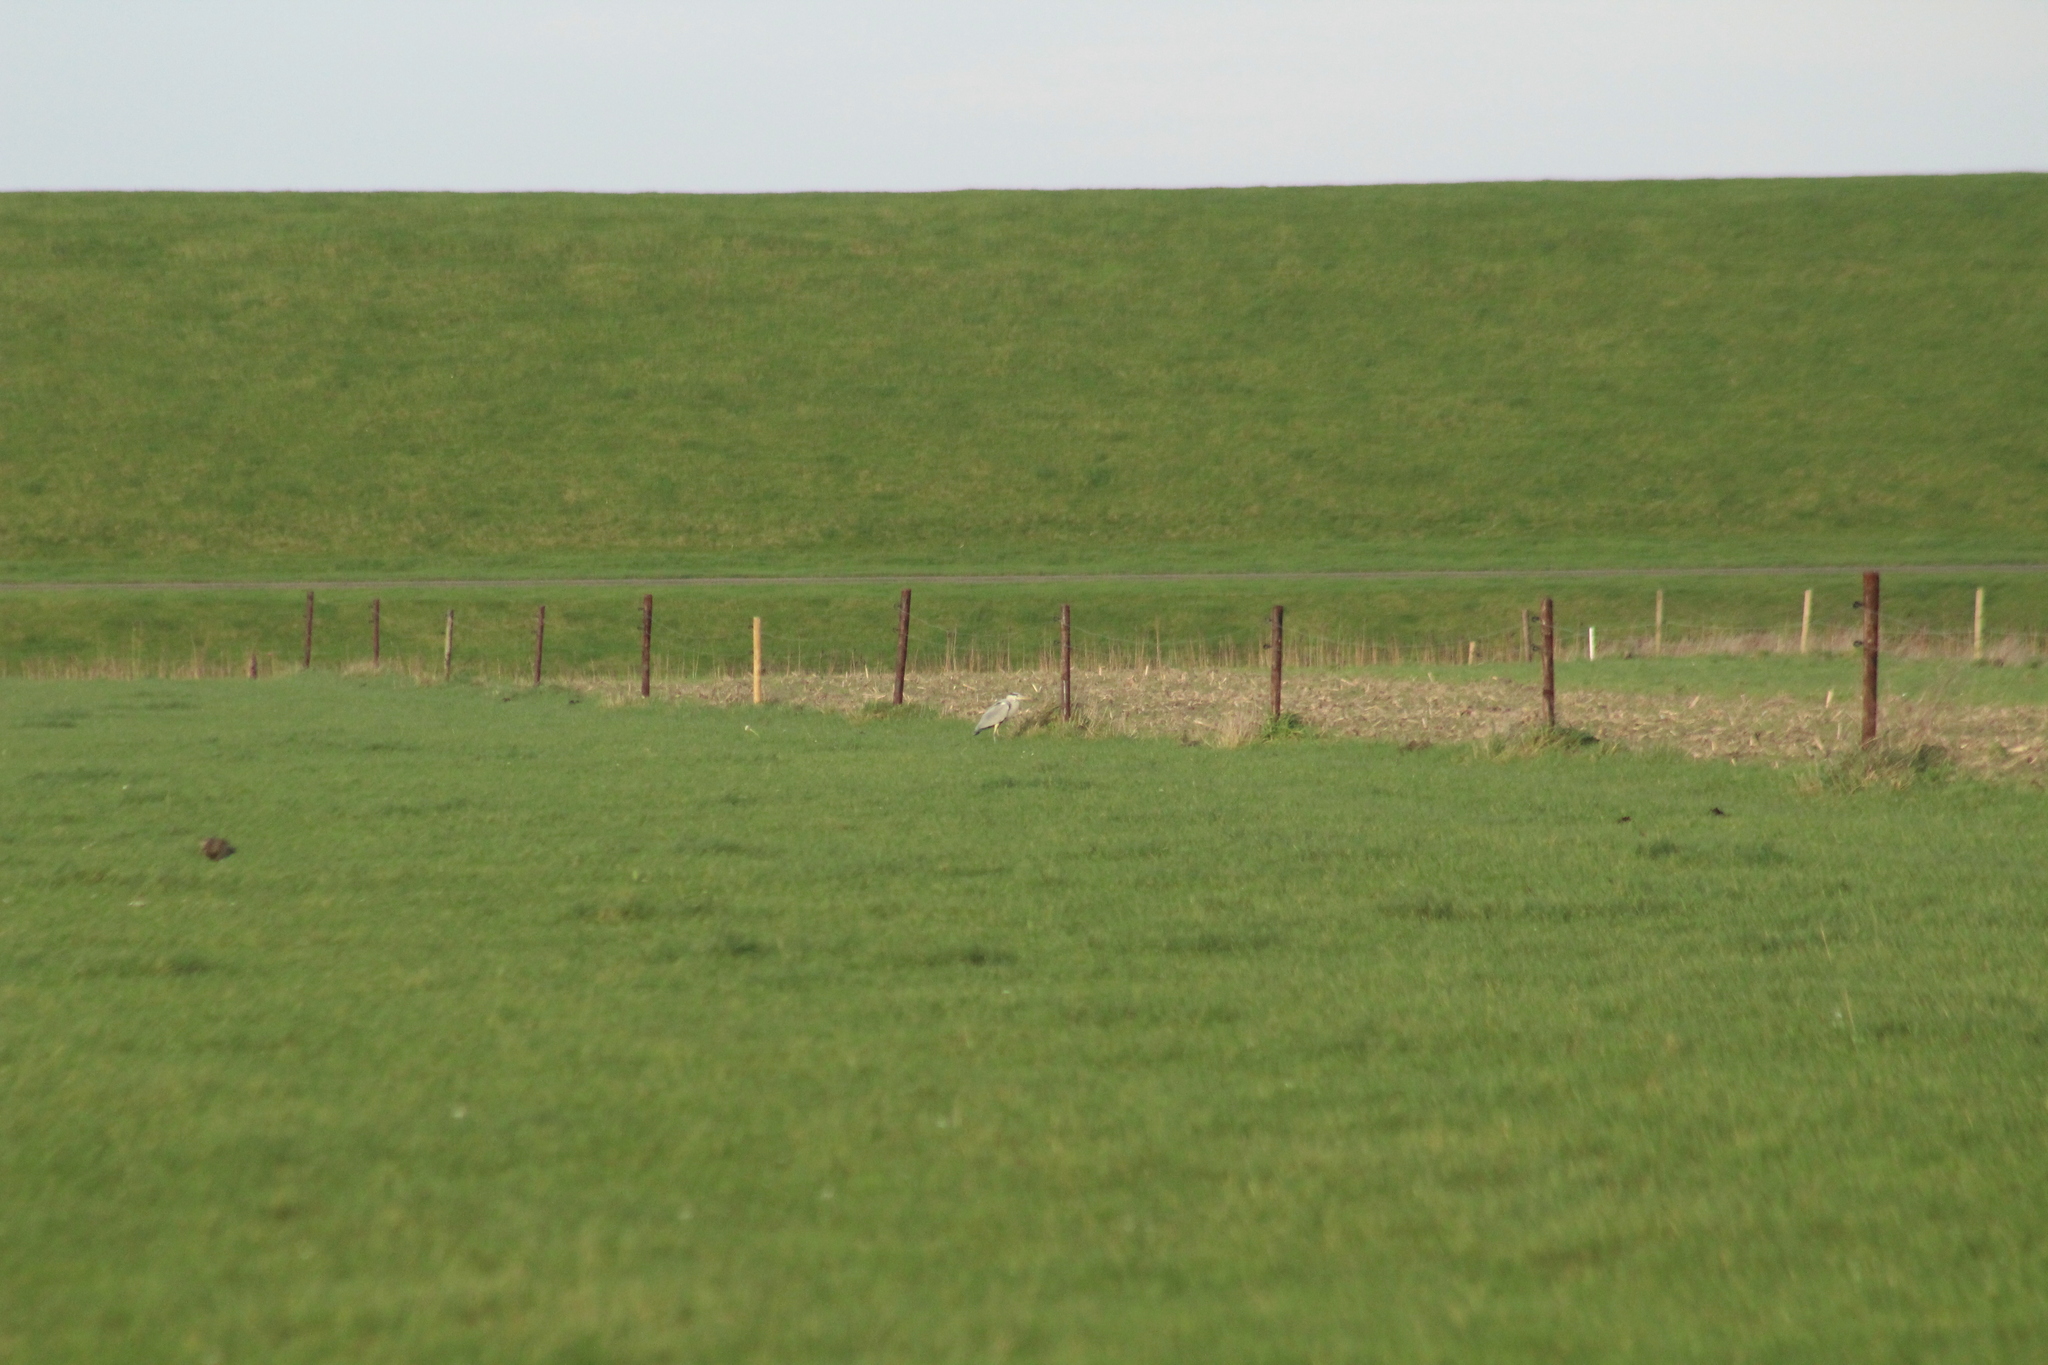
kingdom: Animalia
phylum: Chordata
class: Aves
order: Pelecaniformes
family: Ardeidae
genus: Ardea
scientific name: Ardea cinerea
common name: Grey heron
